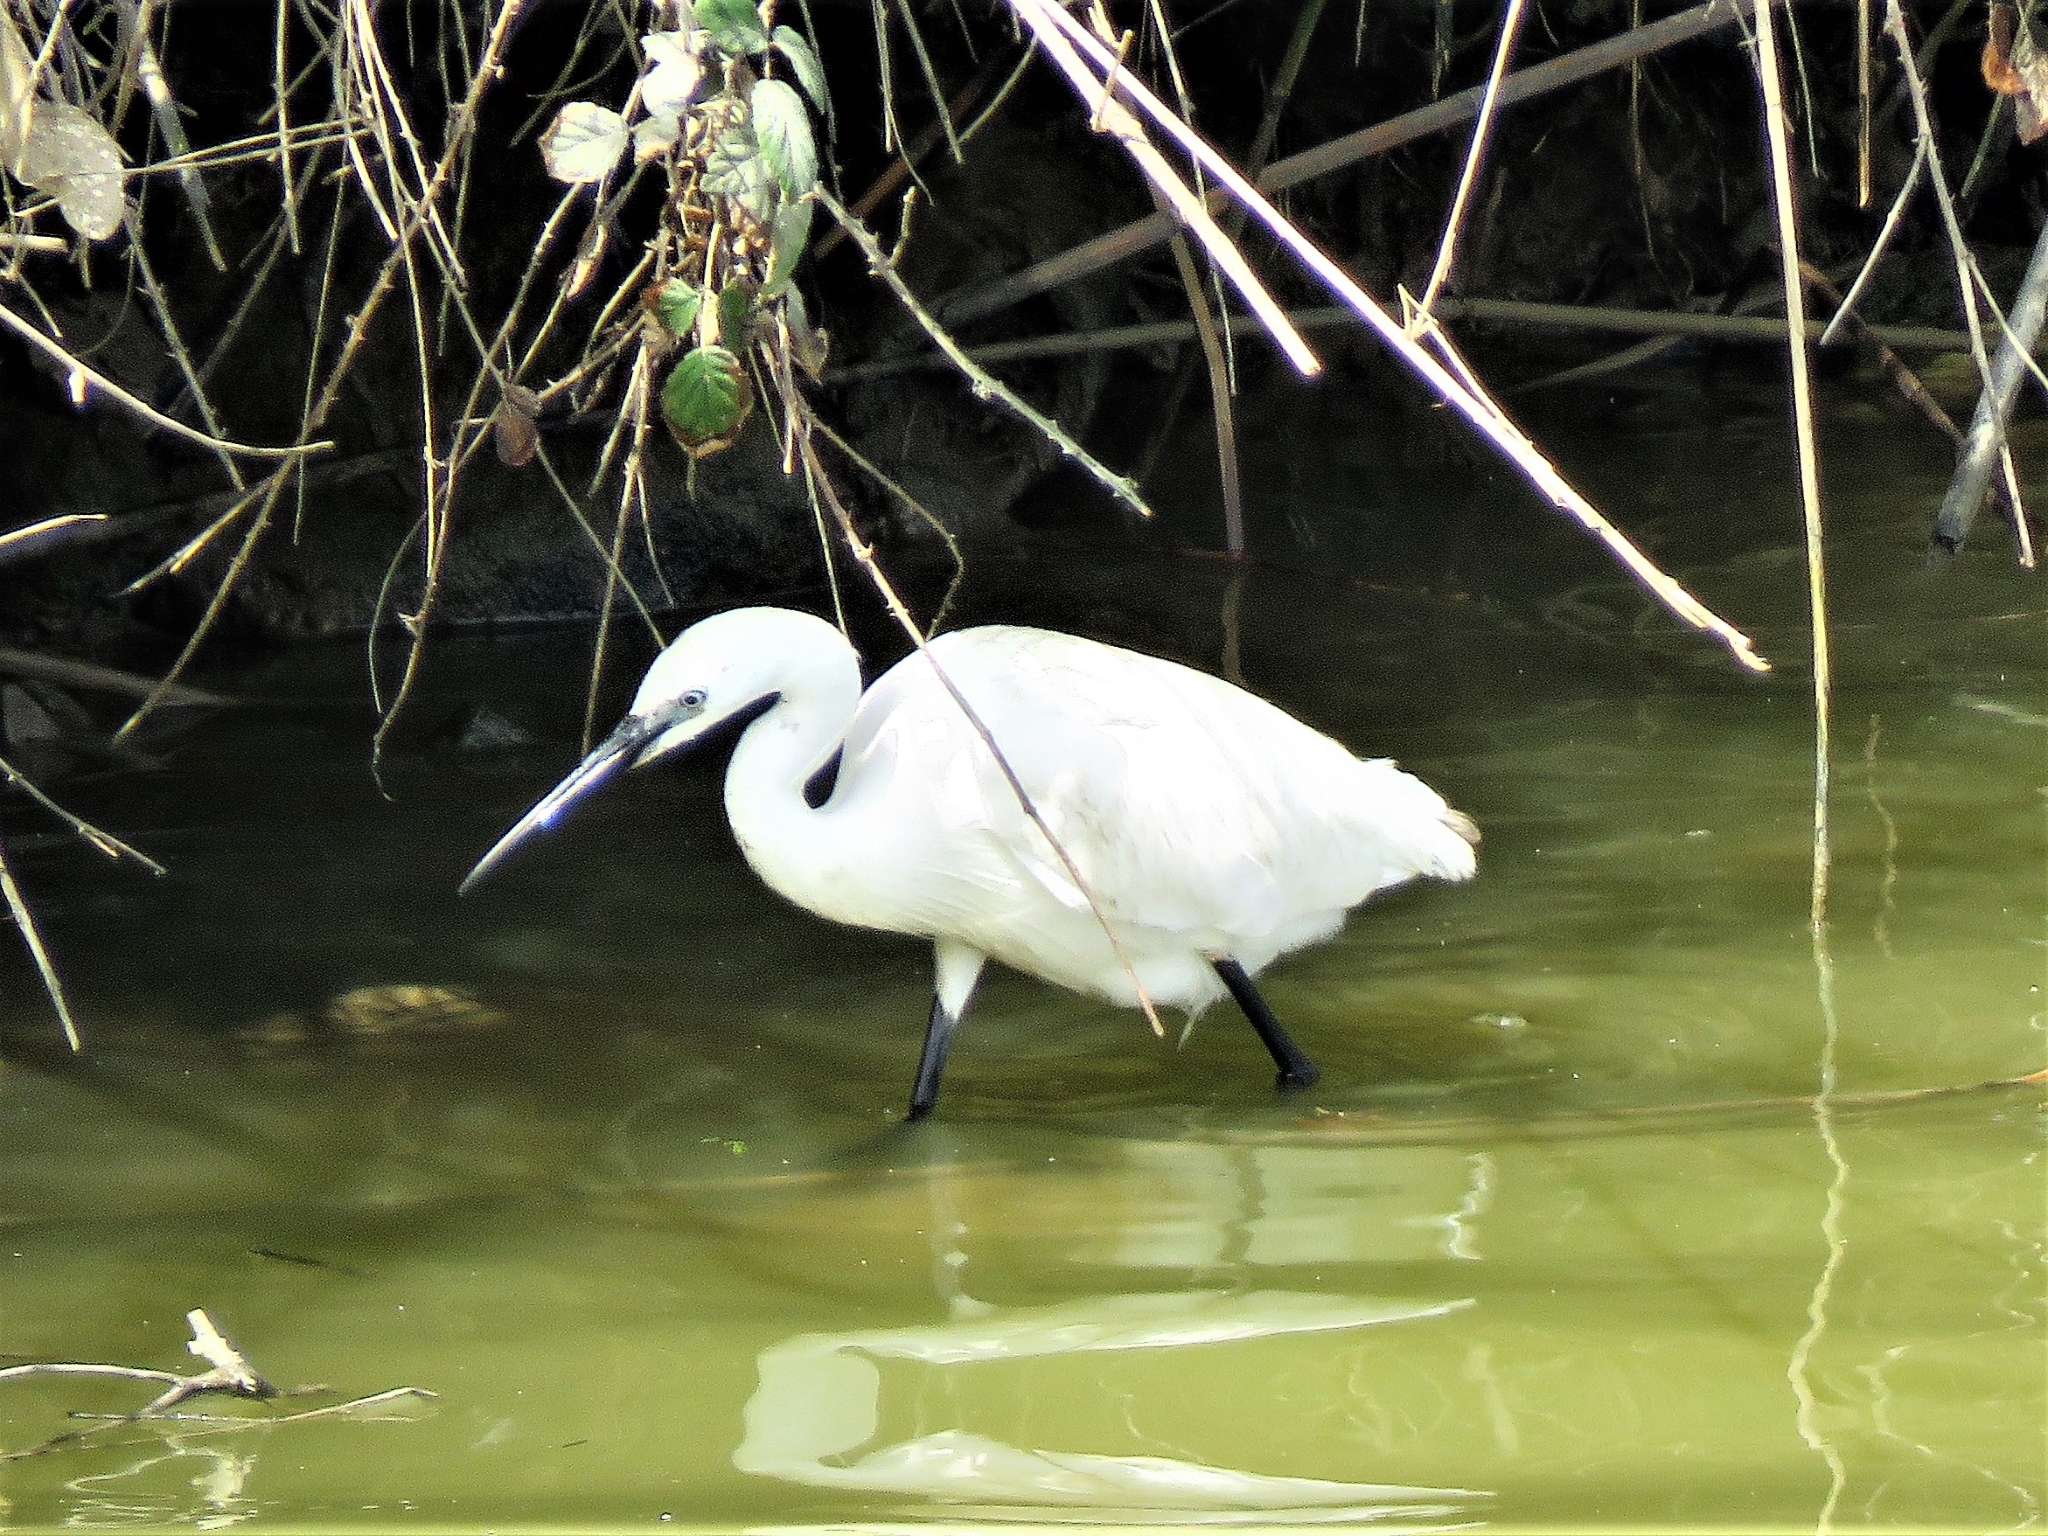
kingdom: Animalia
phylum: Chordata
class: Aves
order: Pelecaniformes
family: Ardeidae
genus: Egretta
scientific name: Egretta garzetta
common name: Little egret
